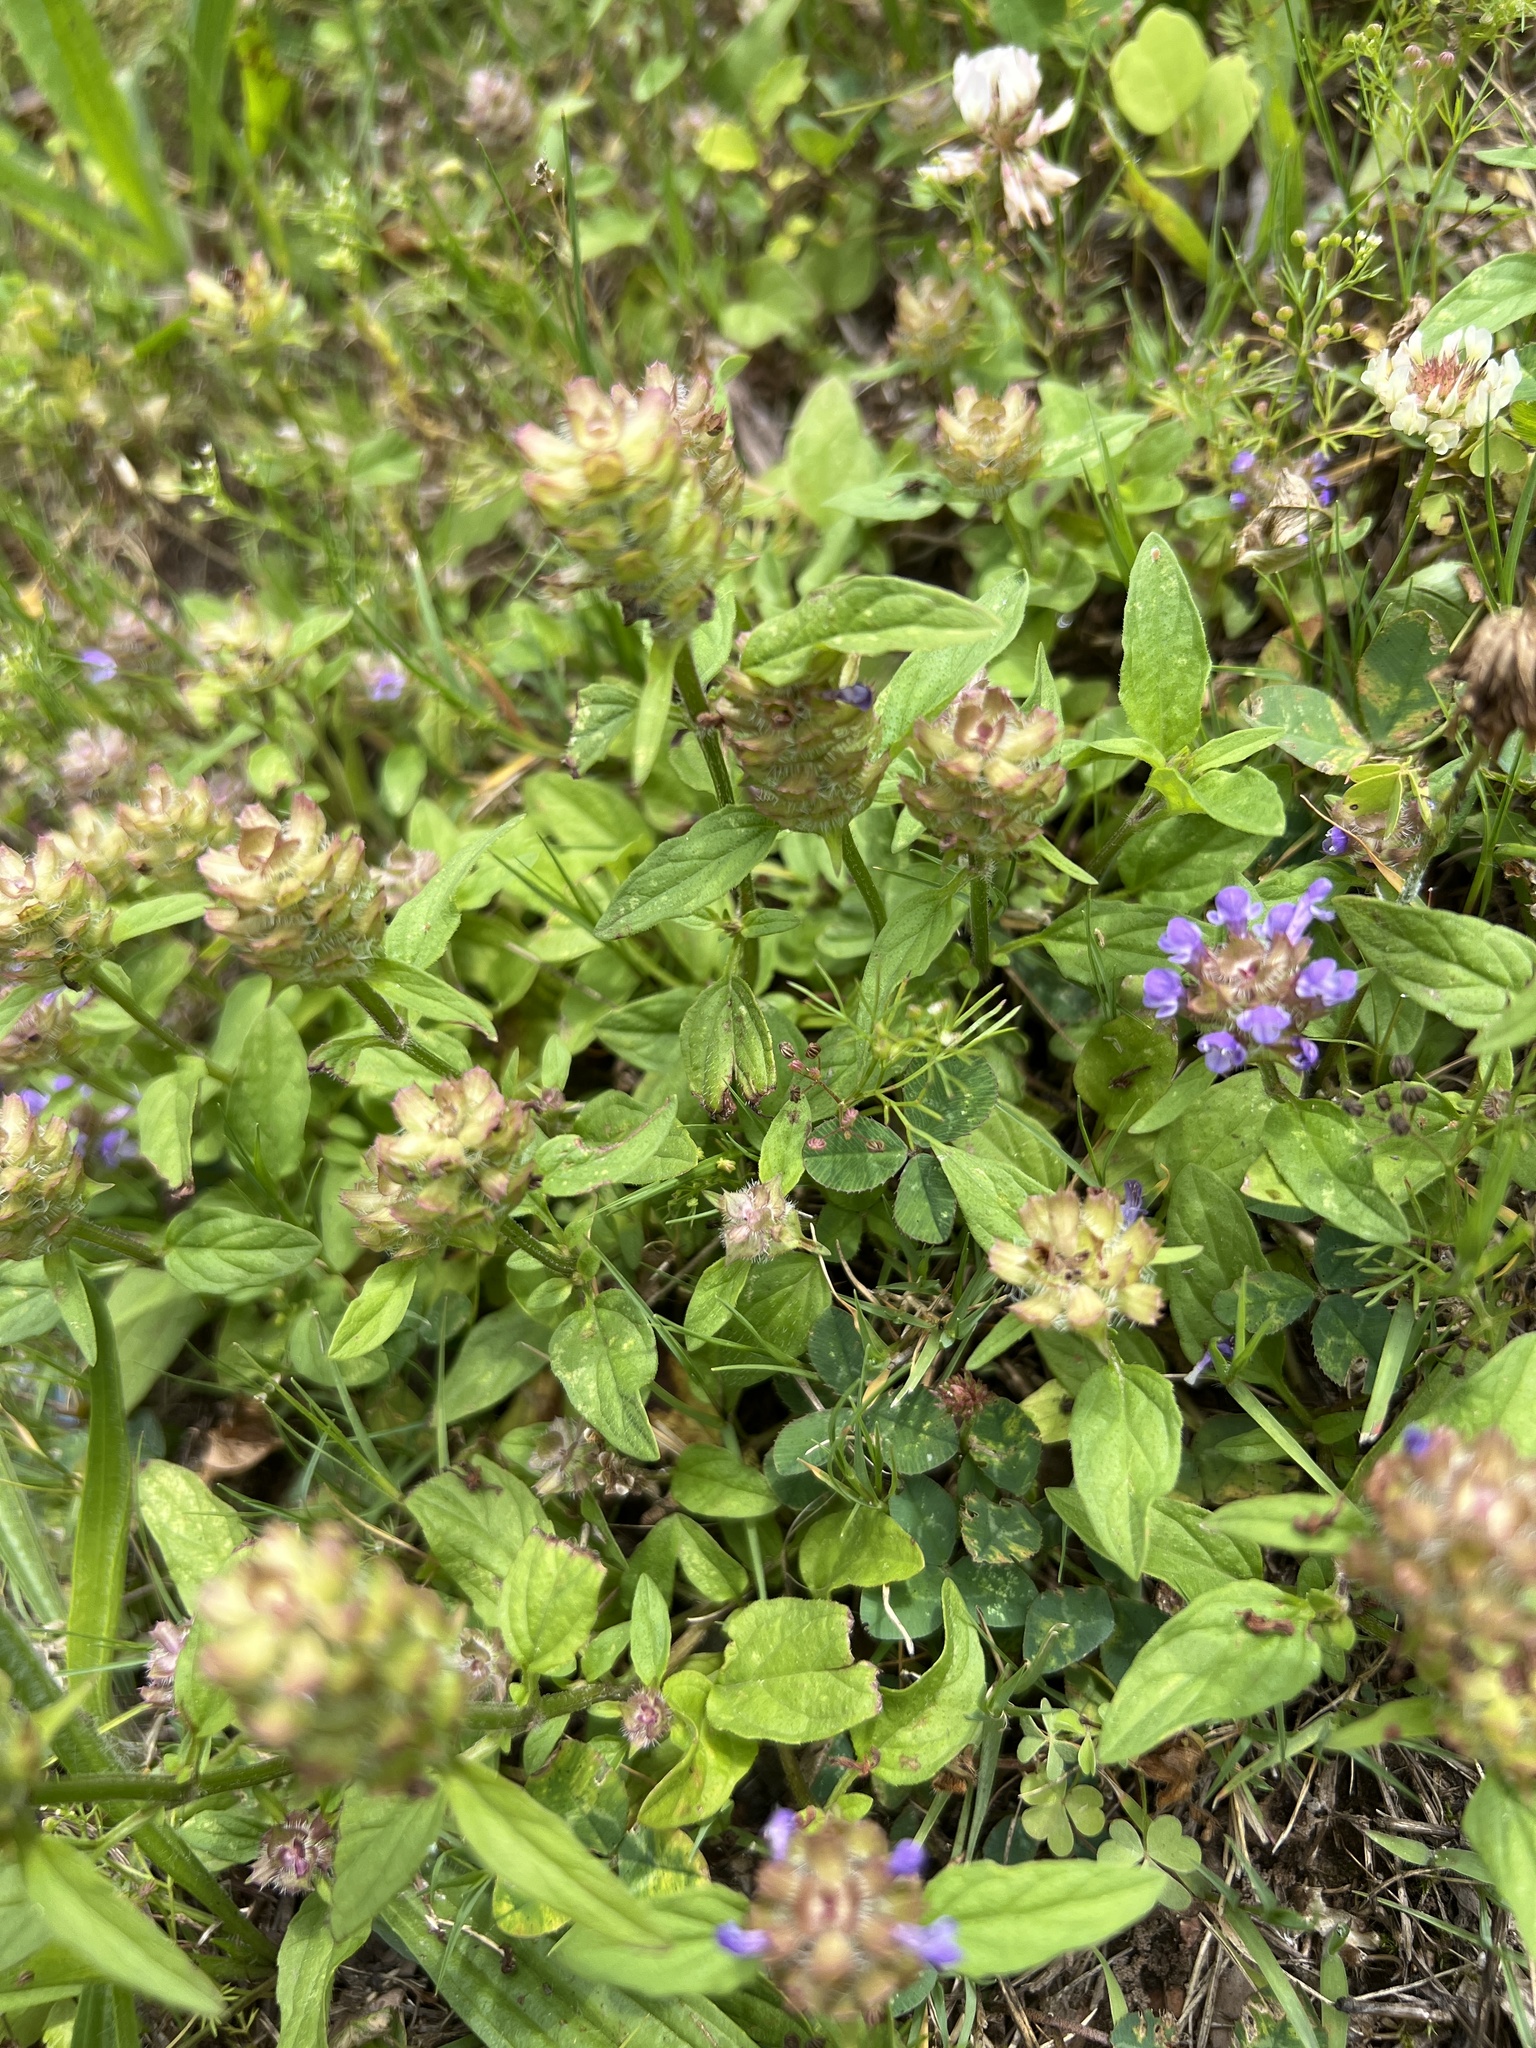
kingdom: Plantae
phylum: Tracheophyta
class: Magnoliopsida
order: Lamiales
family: Lamiaceae
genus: Prunella
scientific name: Prunella vulgaris
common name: Heal-all
